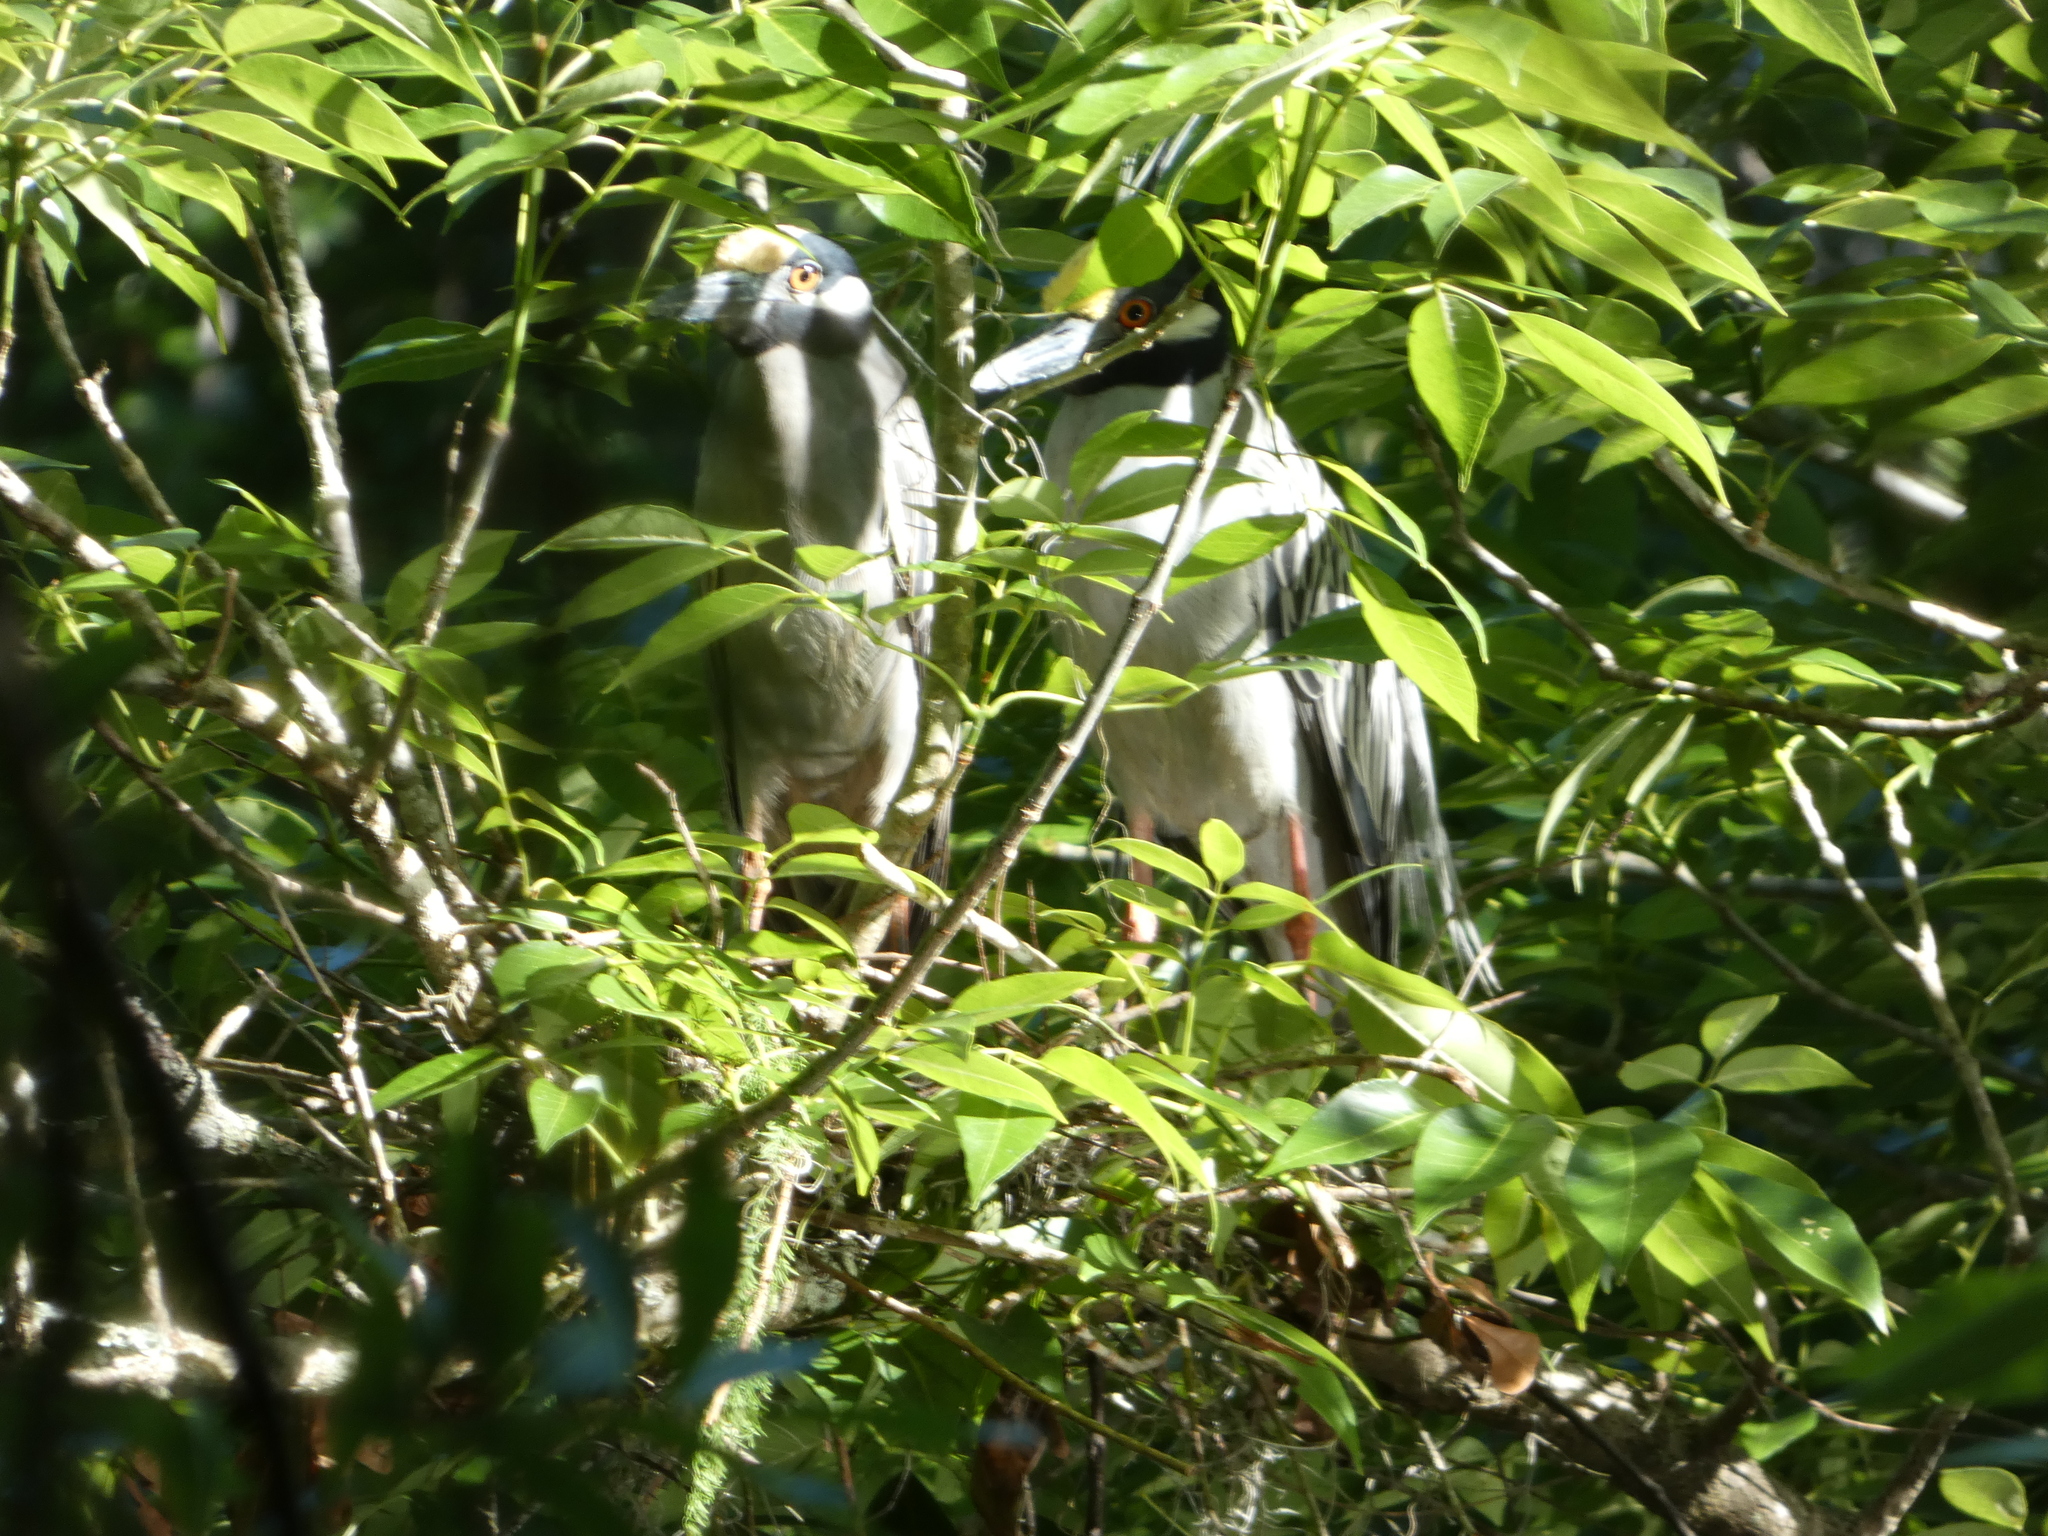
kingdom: Animalia
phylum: Chordata
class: Aves
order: Pelecaniformes
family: Ardeidae
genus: Nyctanassa
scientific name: Nyctanassa violacea
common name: Yellow-crowned night heron
